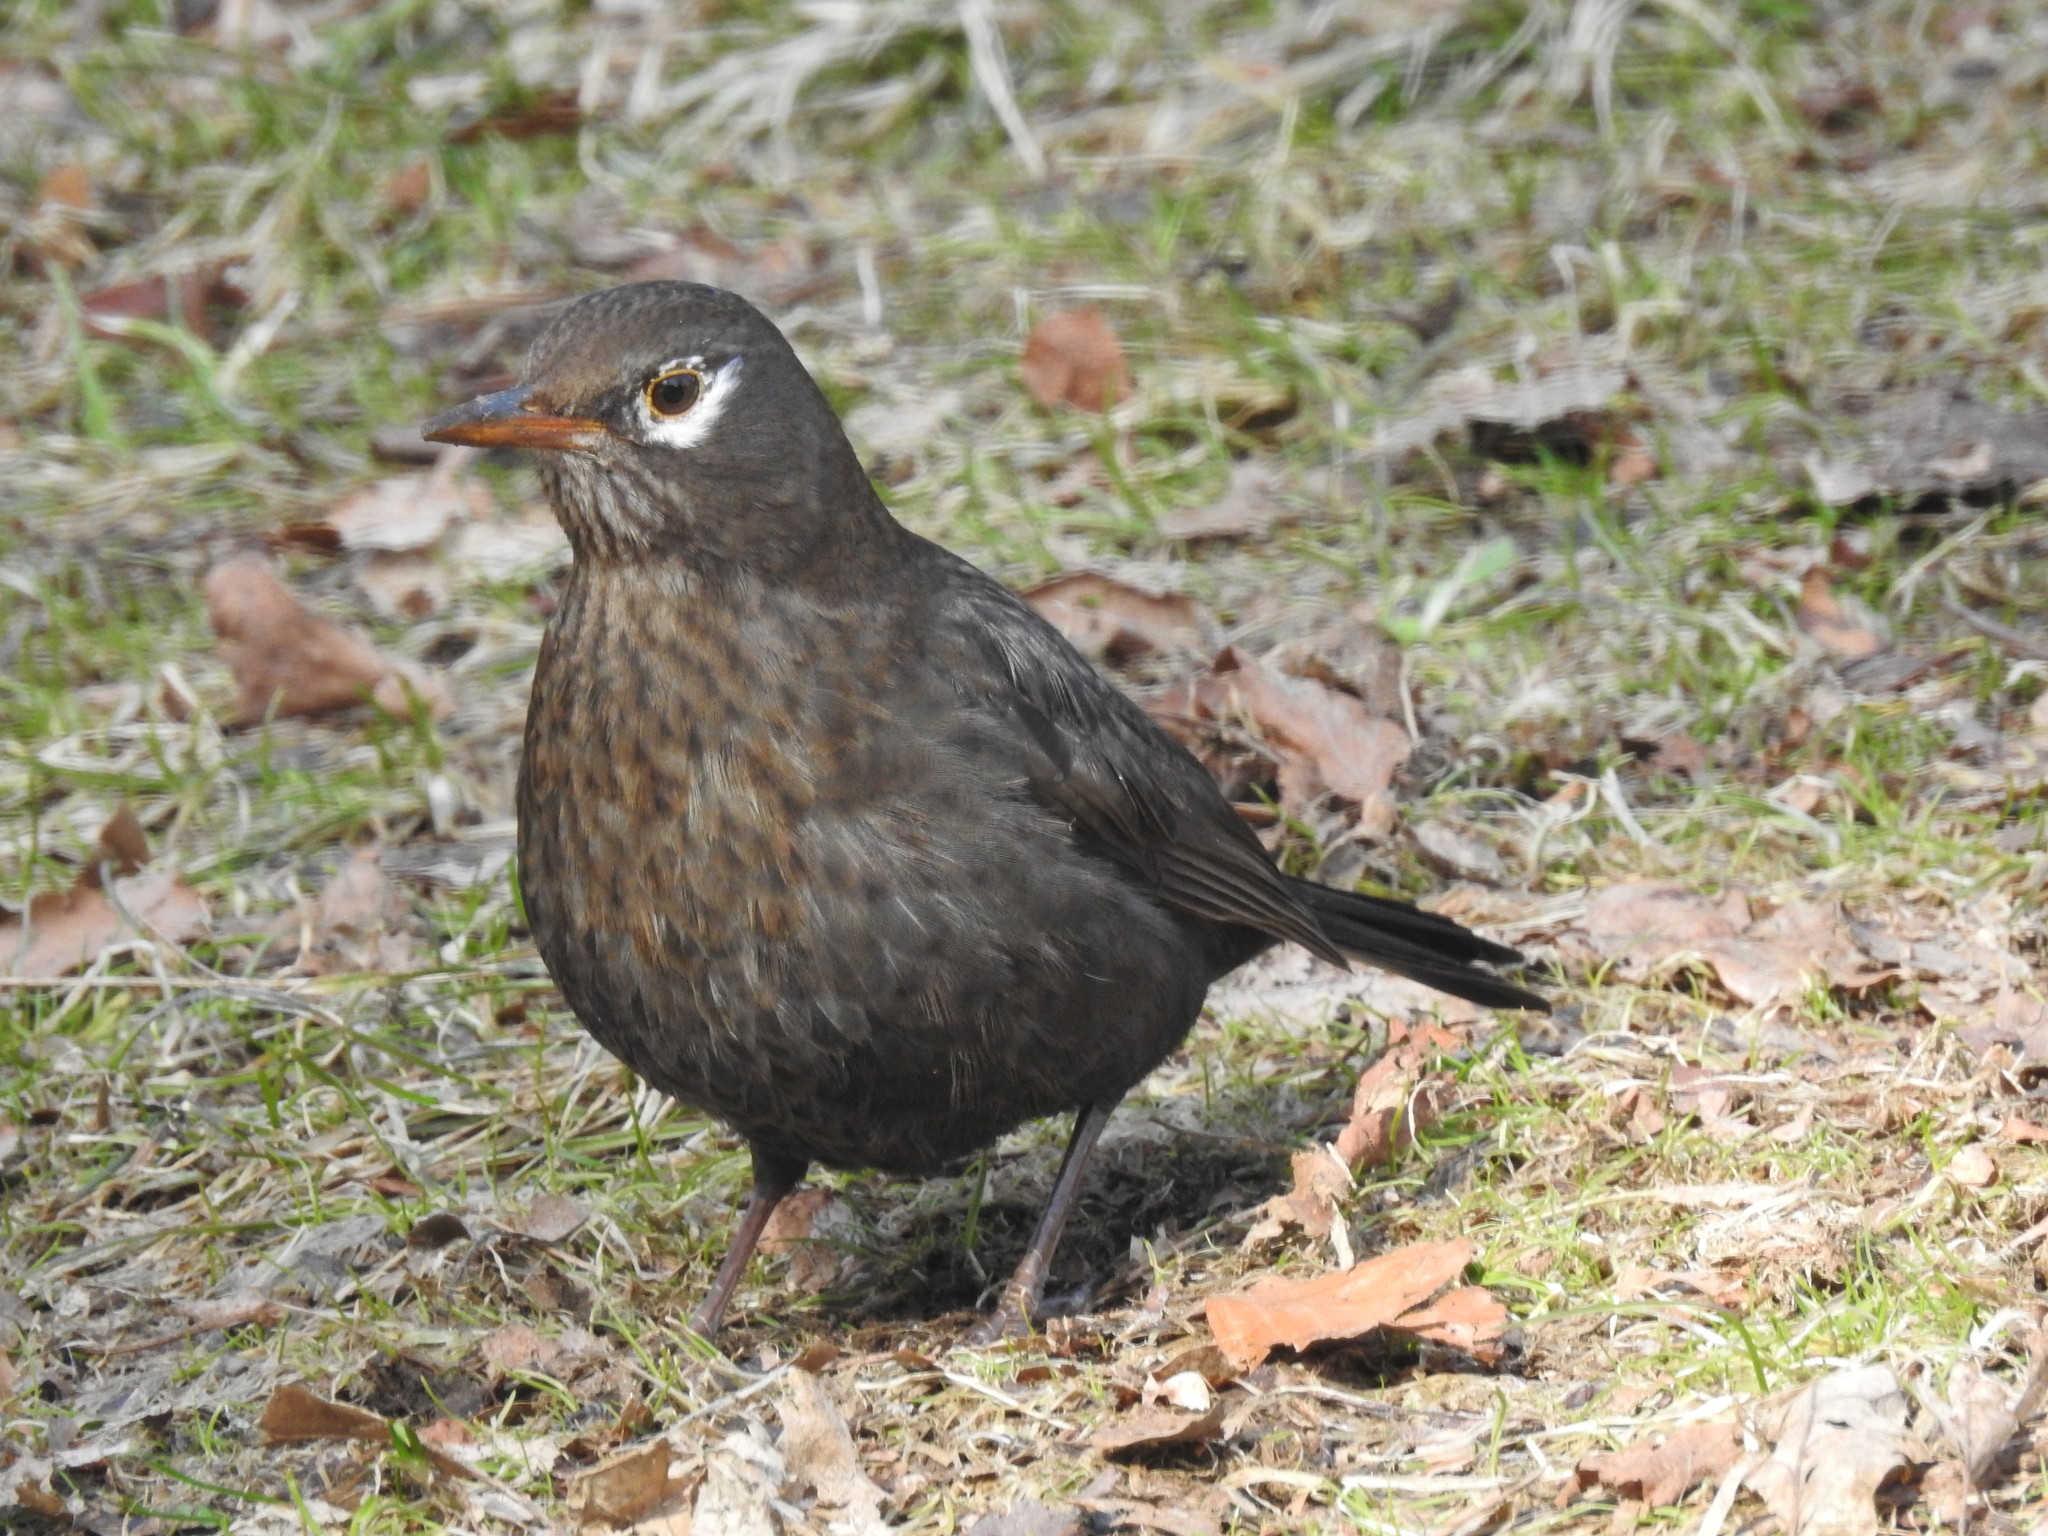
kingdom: Animalia
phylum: Chordata
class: Aves
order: Passeriformes
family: Turdidae
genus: Turdus
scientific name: Turdus merula
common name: Common blackbird
